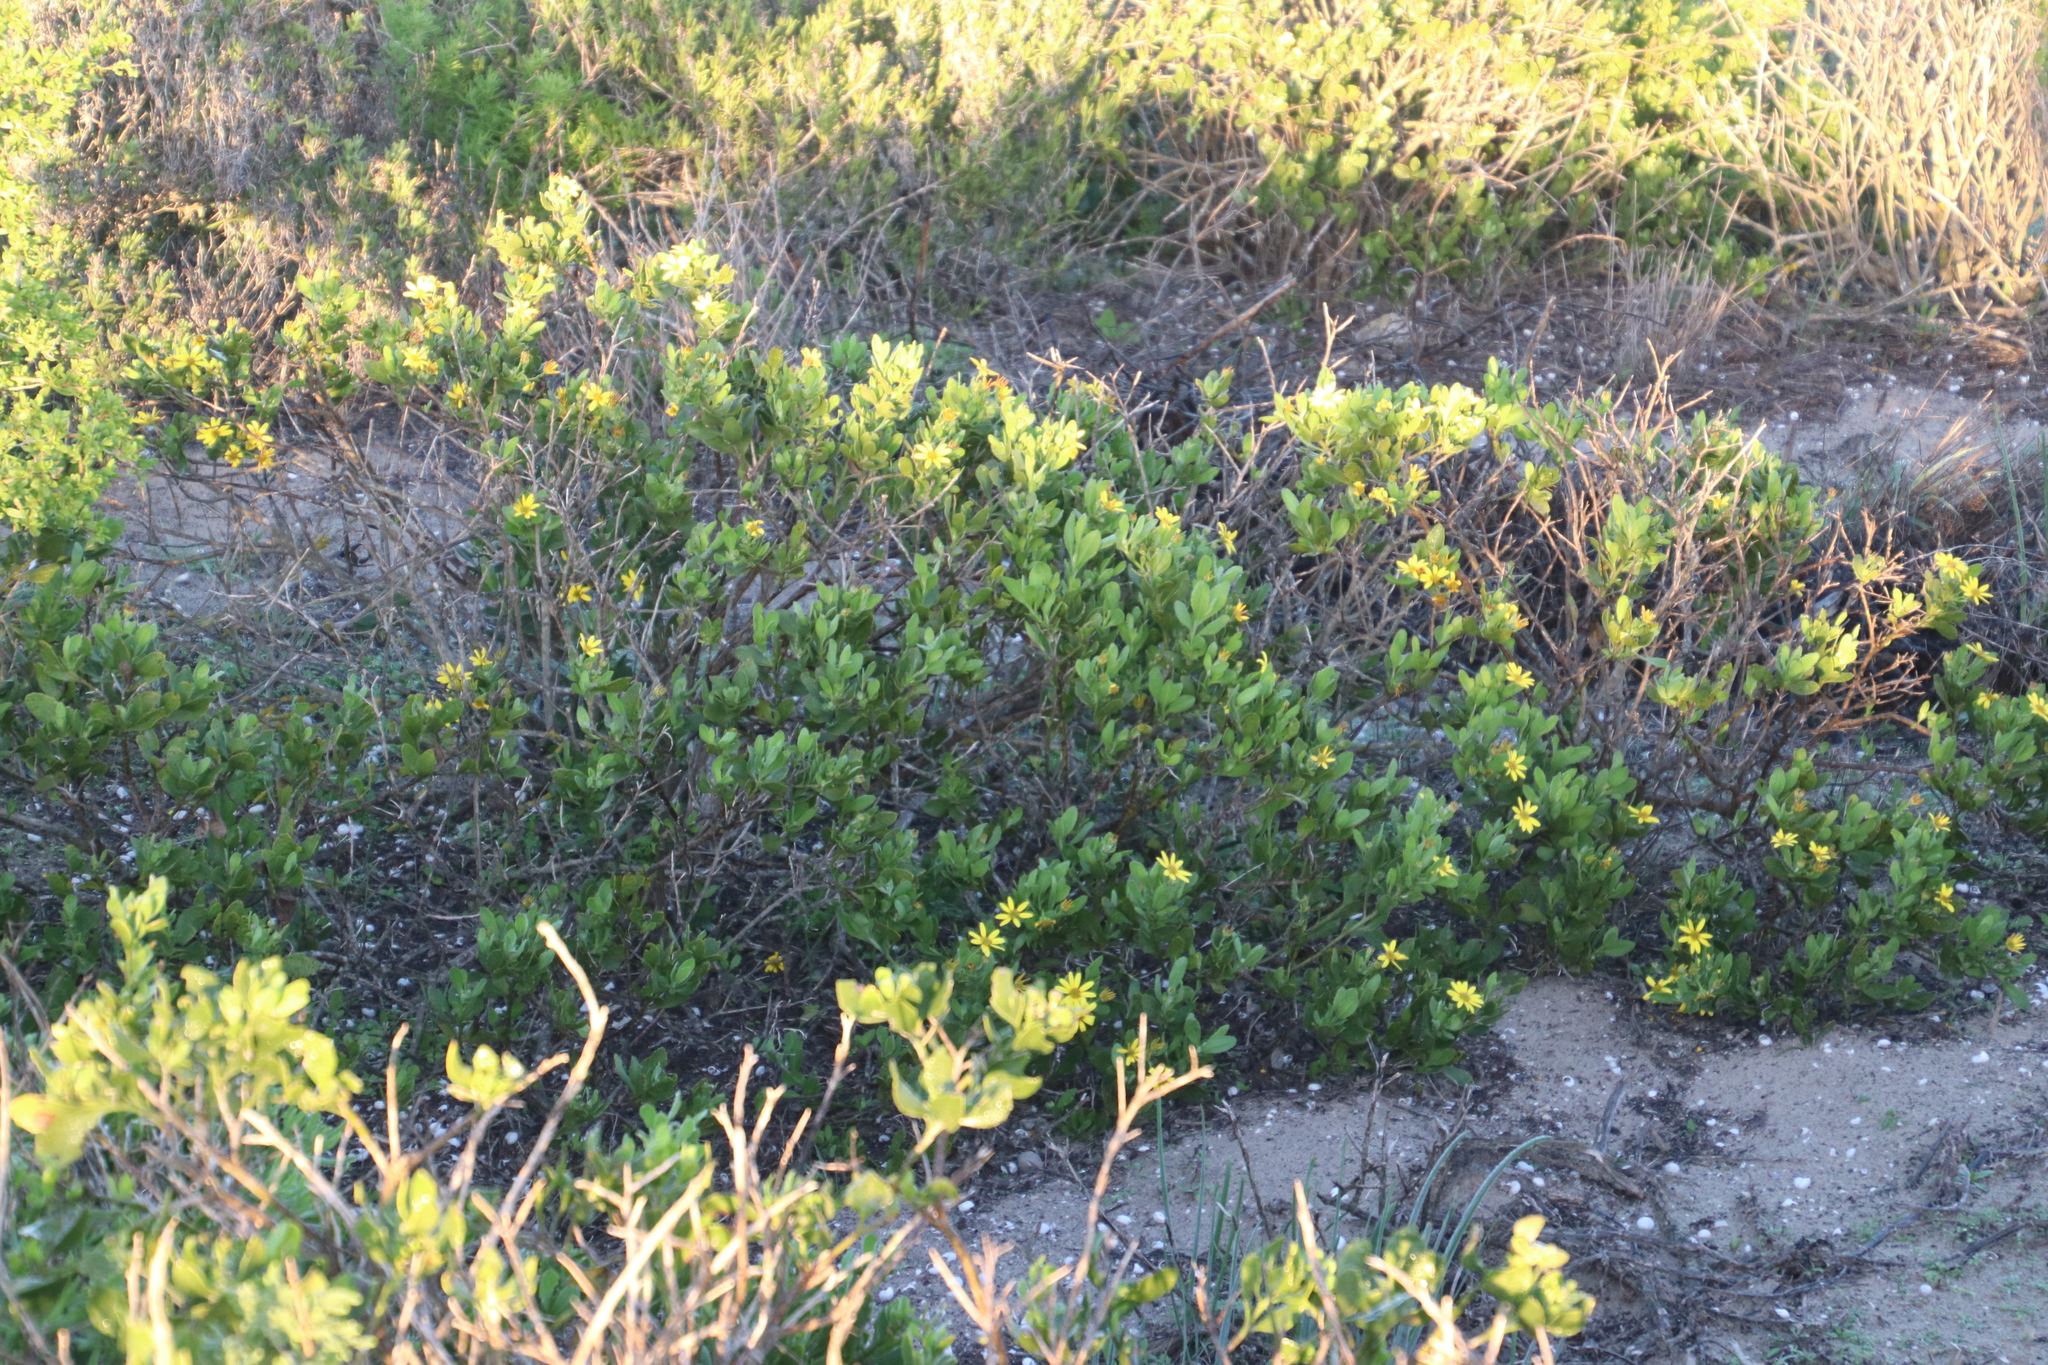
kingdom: Plantae
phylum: Tracheophyta
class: Magnoliopsida
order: Asterales
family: Asteraceae
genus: Osteospermum
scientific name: Osteospermum moniliferum
